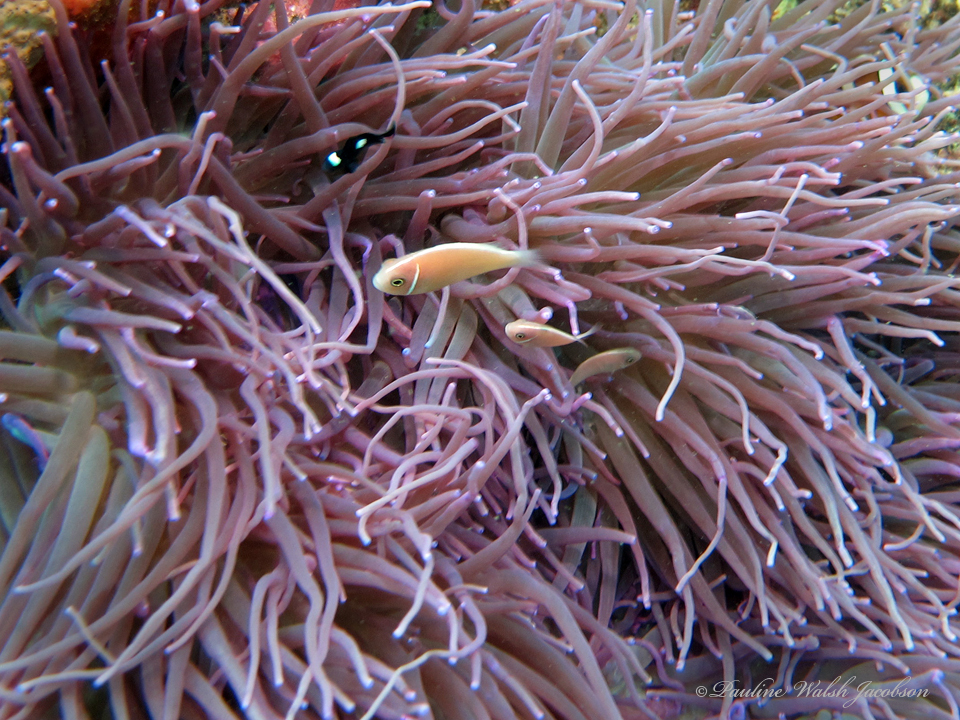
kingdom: Animalia
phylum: Chordata
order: Perciformes
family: Pomacentridae
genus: Amphiprion
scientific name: Amphiprion perideraion
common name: Pink anemonefish
